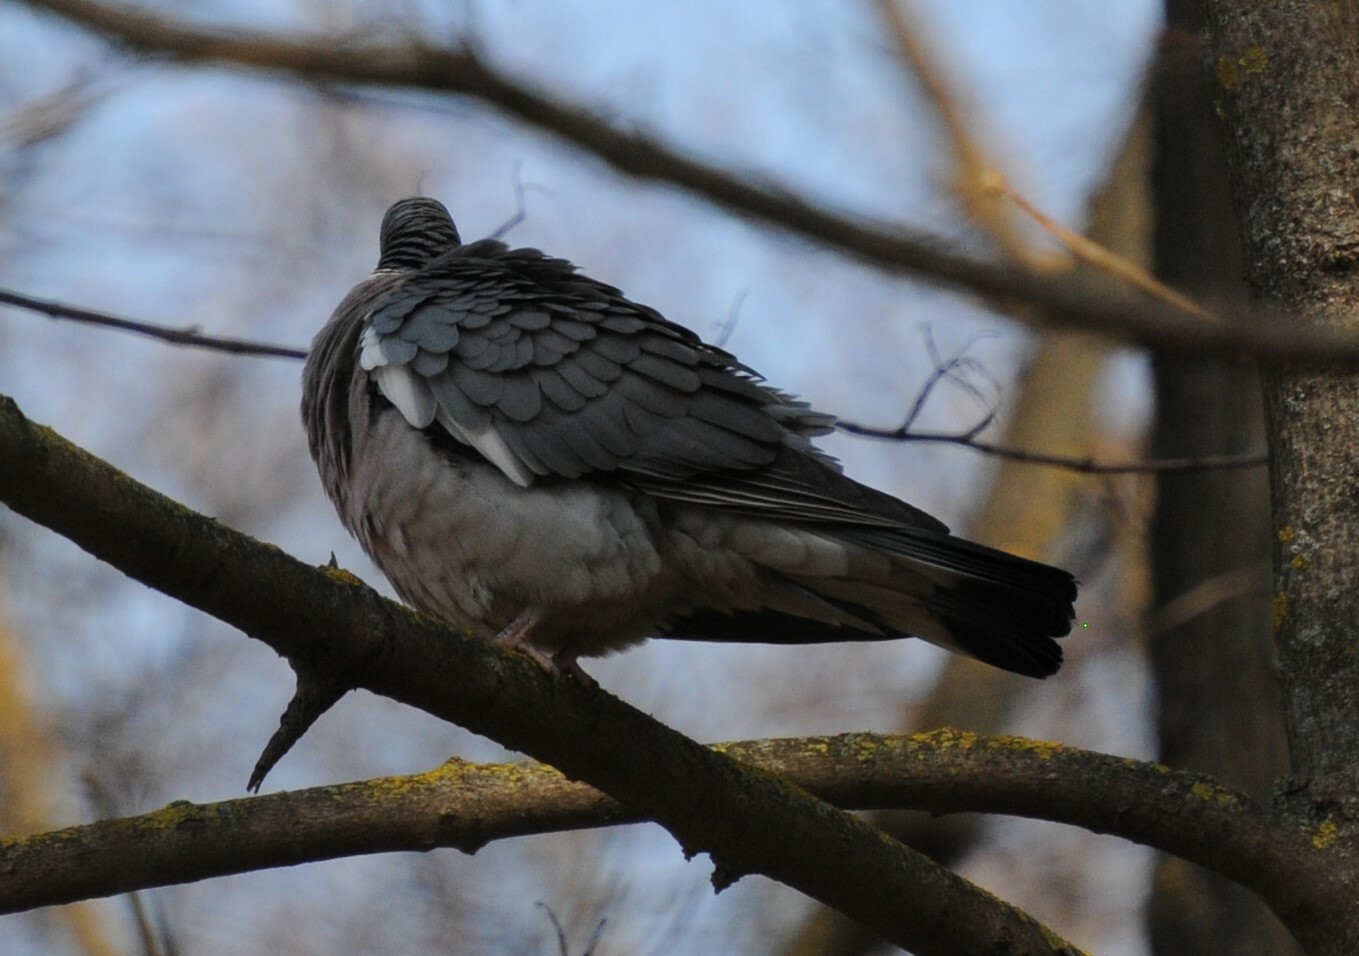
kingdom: Animalia
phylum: Chordata
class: Aves
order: Columbiformes
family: Columbidae
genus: Columba
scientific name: Columba palumbus
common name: Common wood pigeon
